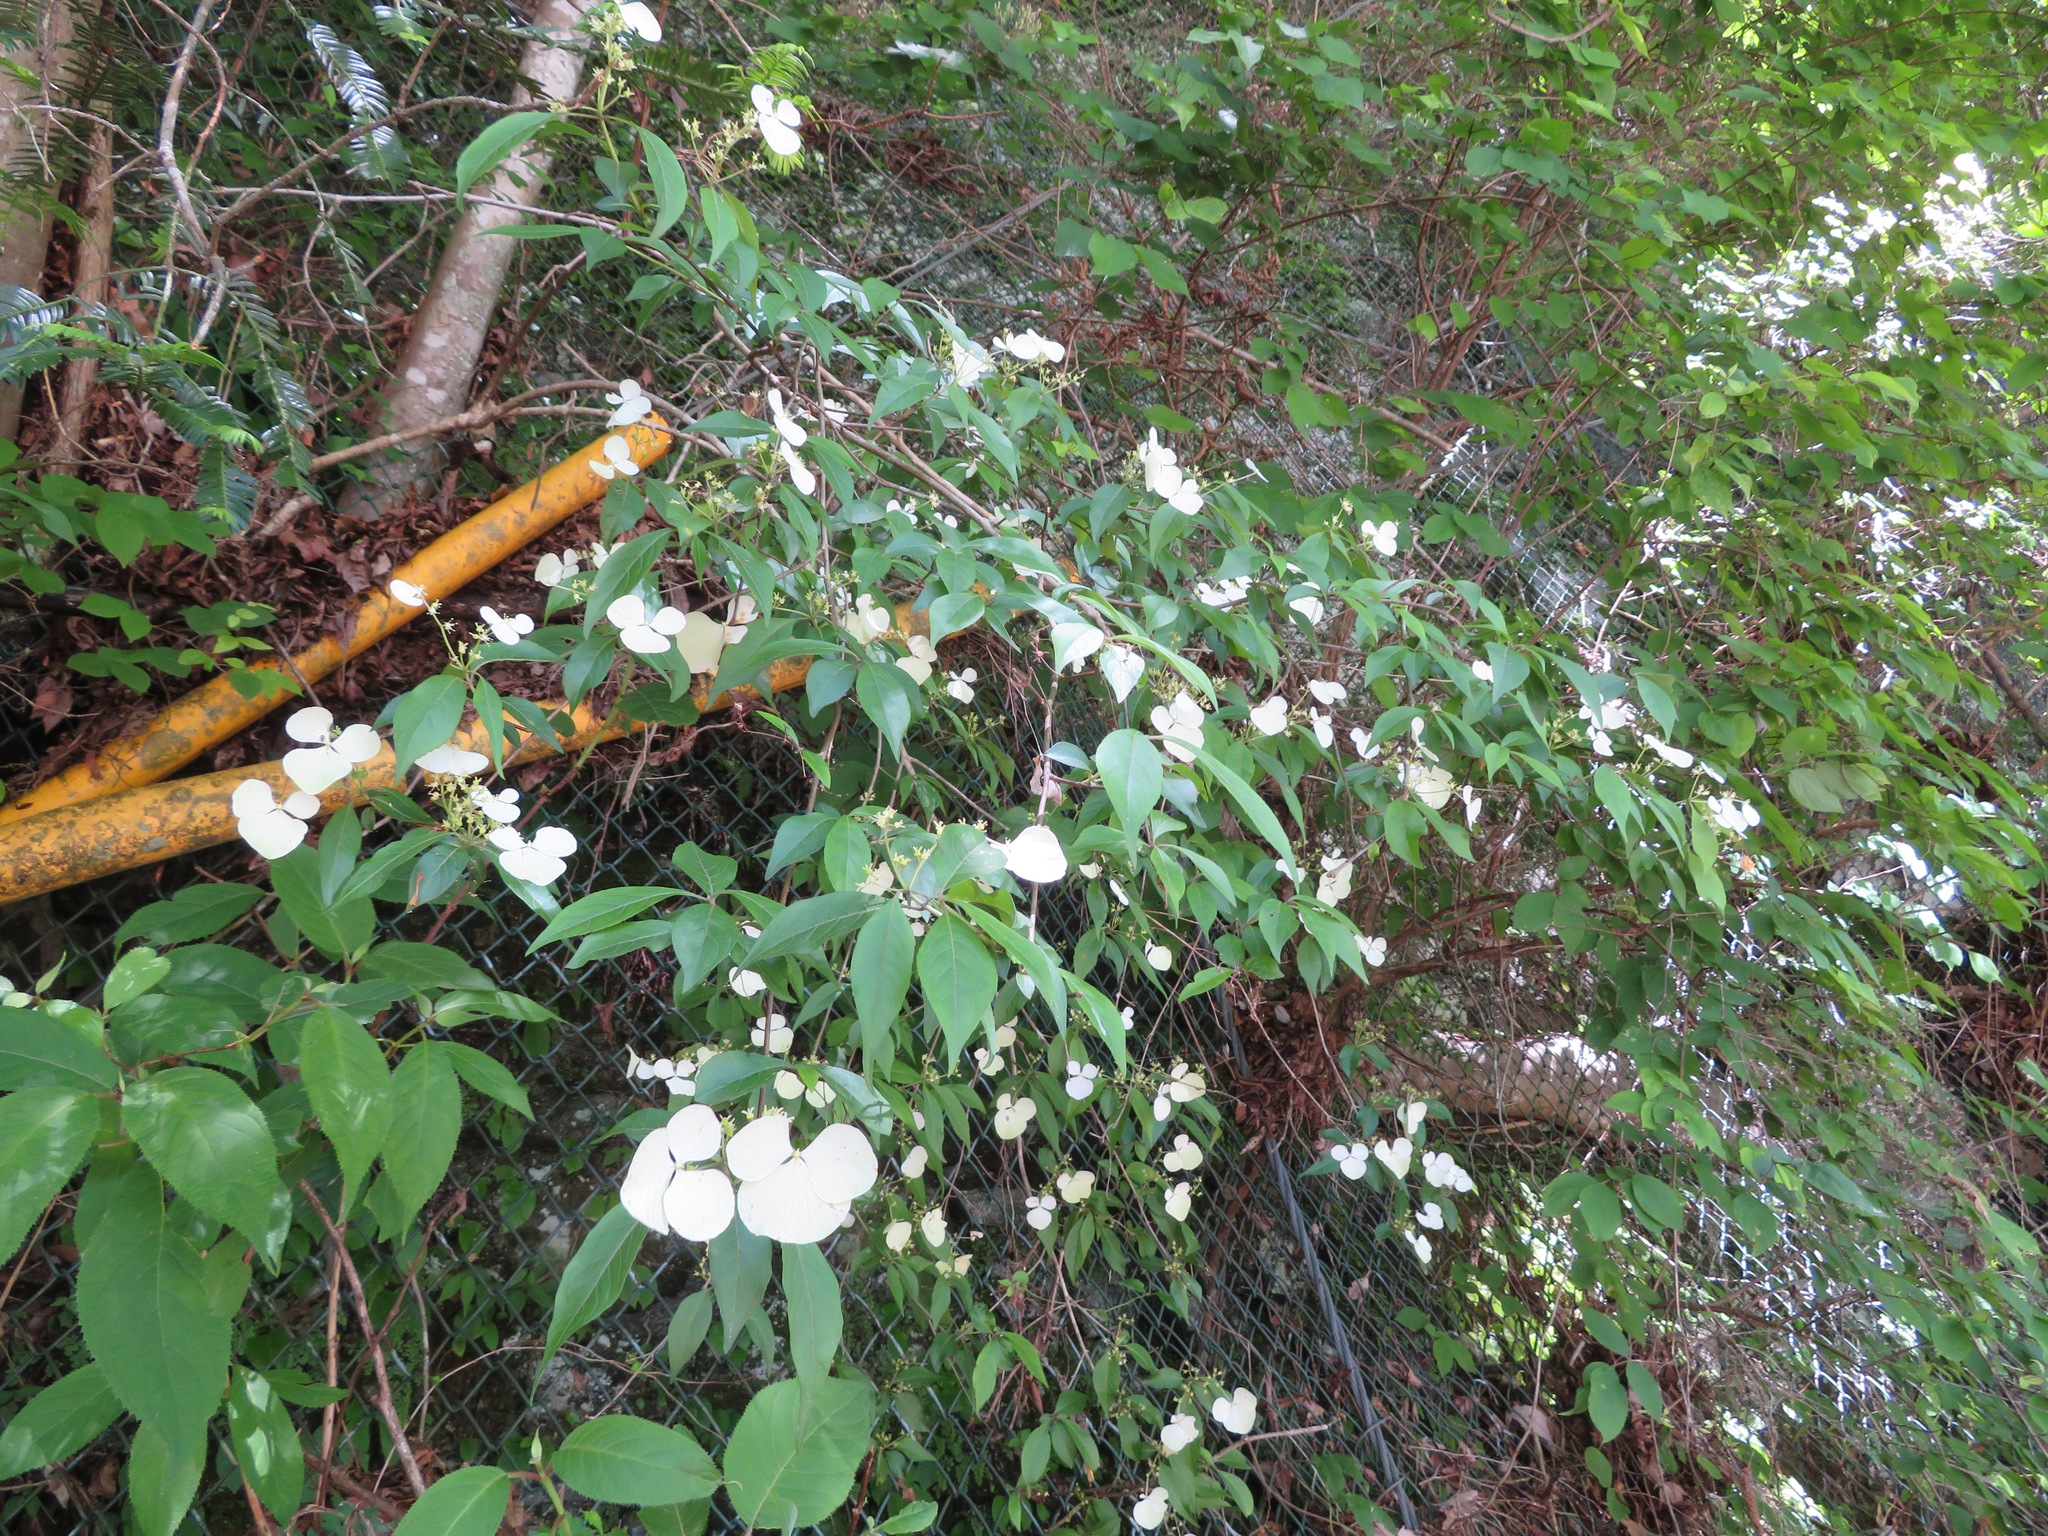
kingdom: Plantae
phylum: Tracheophyta
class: Magnoliopsida
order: Cornales
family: Hydrangeaceae
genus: Hydrangea
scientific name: Hydrangea scandens
